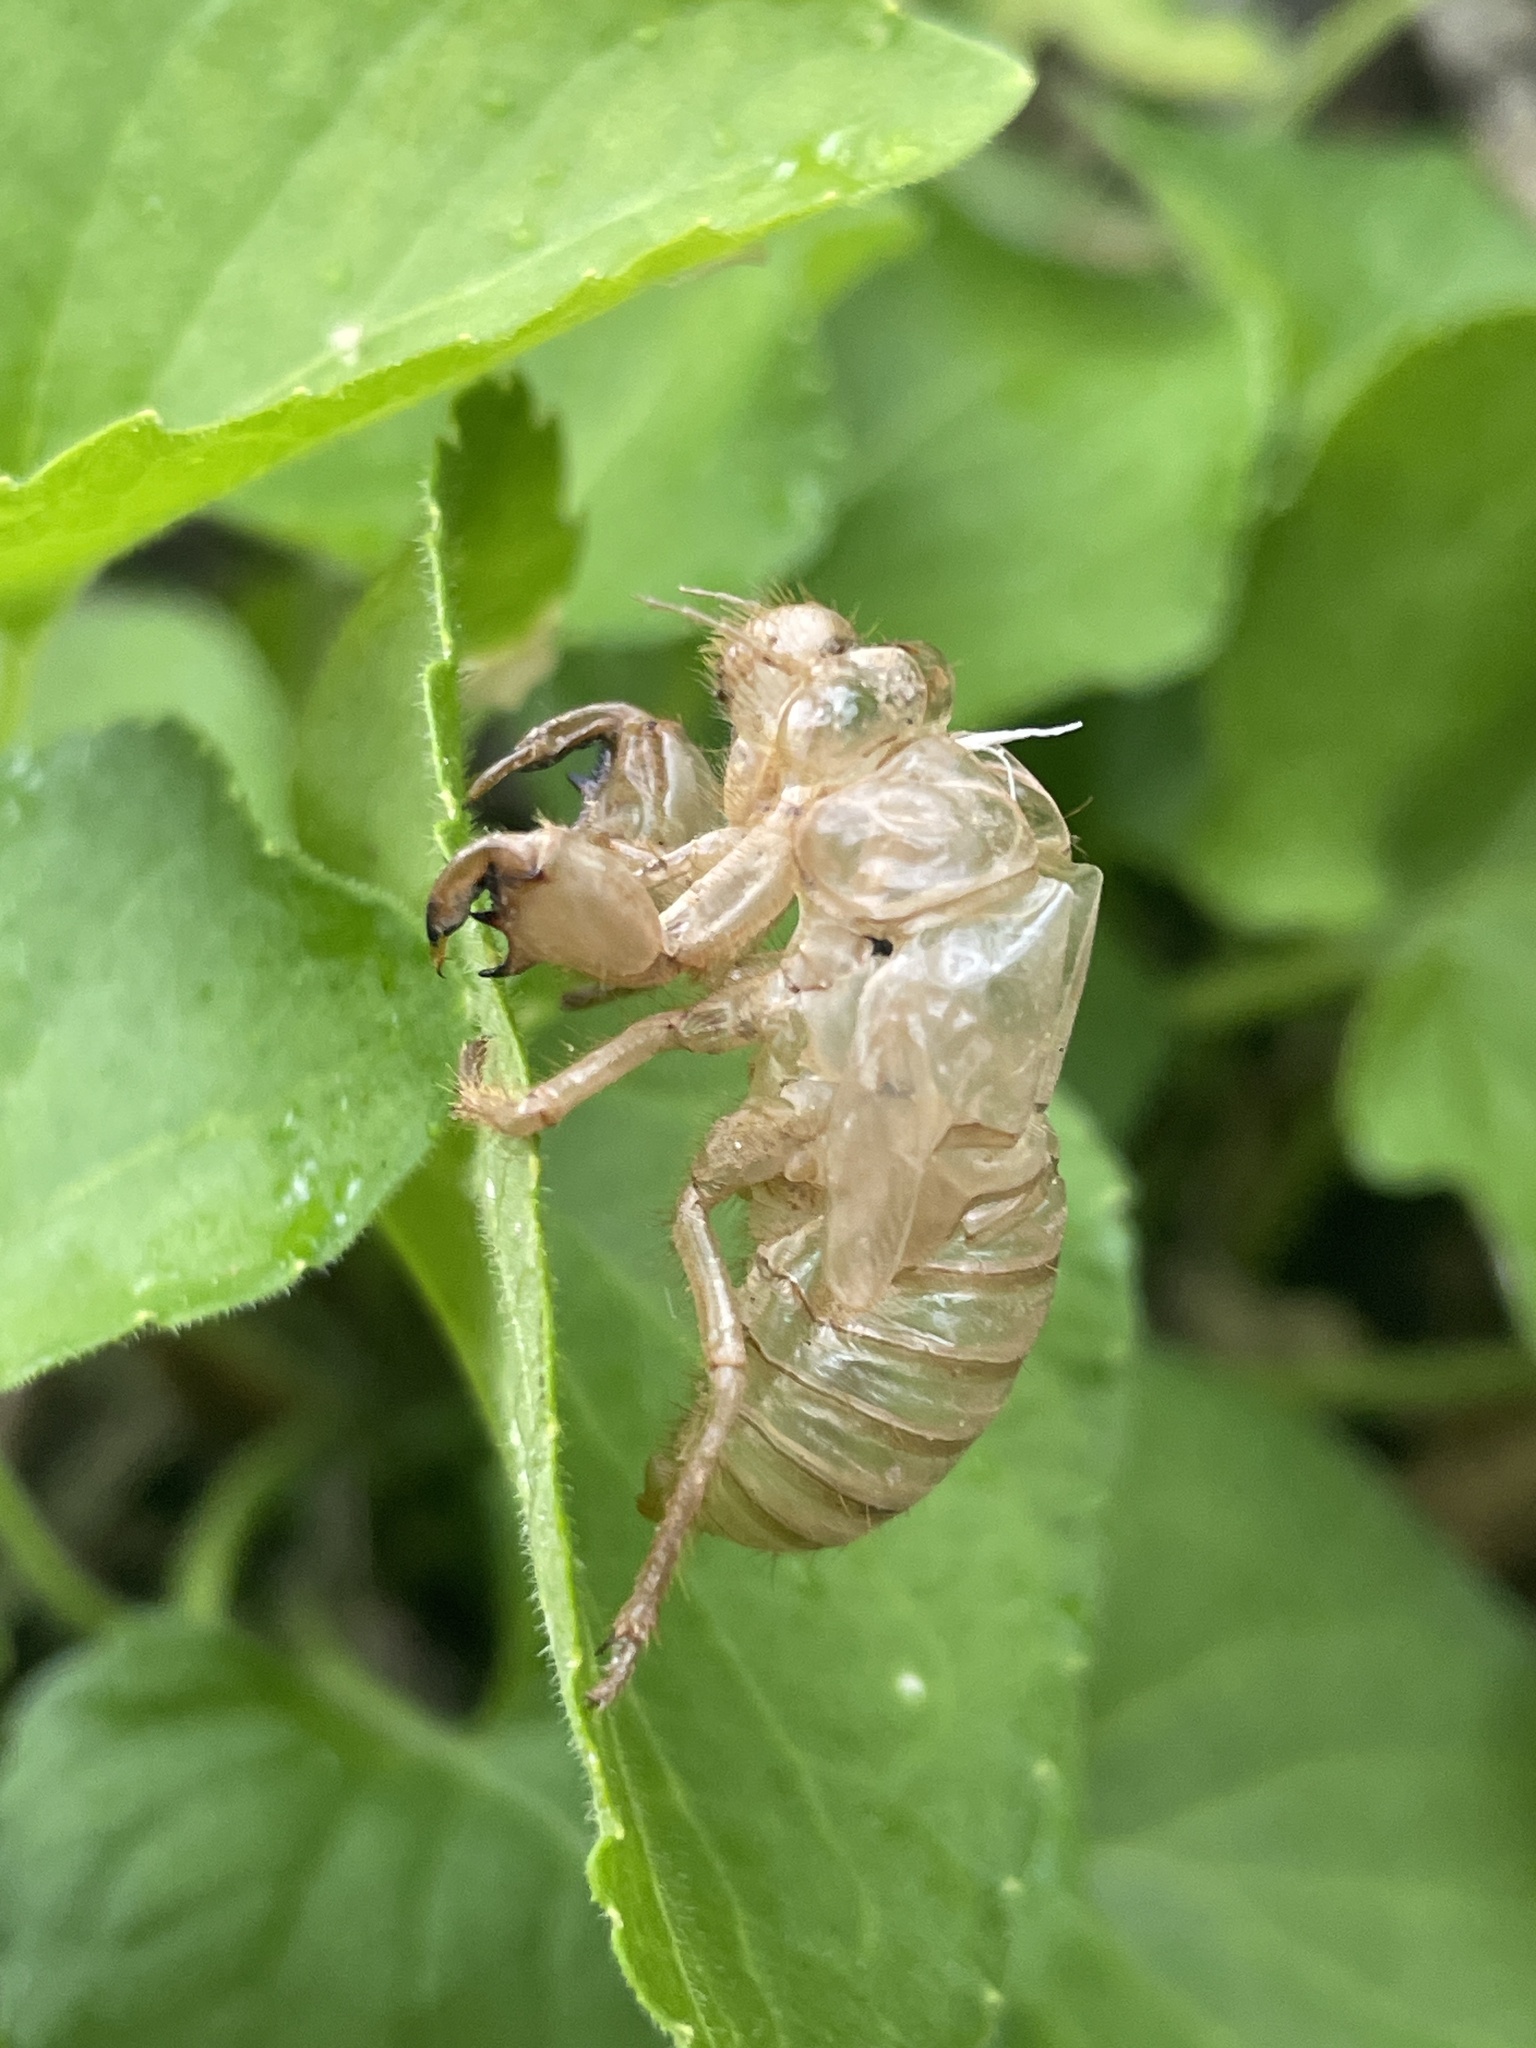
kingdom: Animalia
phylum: Arthropoda
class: Insecta
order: Hemiptera
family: Cicadidae
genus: Cicada
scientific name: Cicada orni
